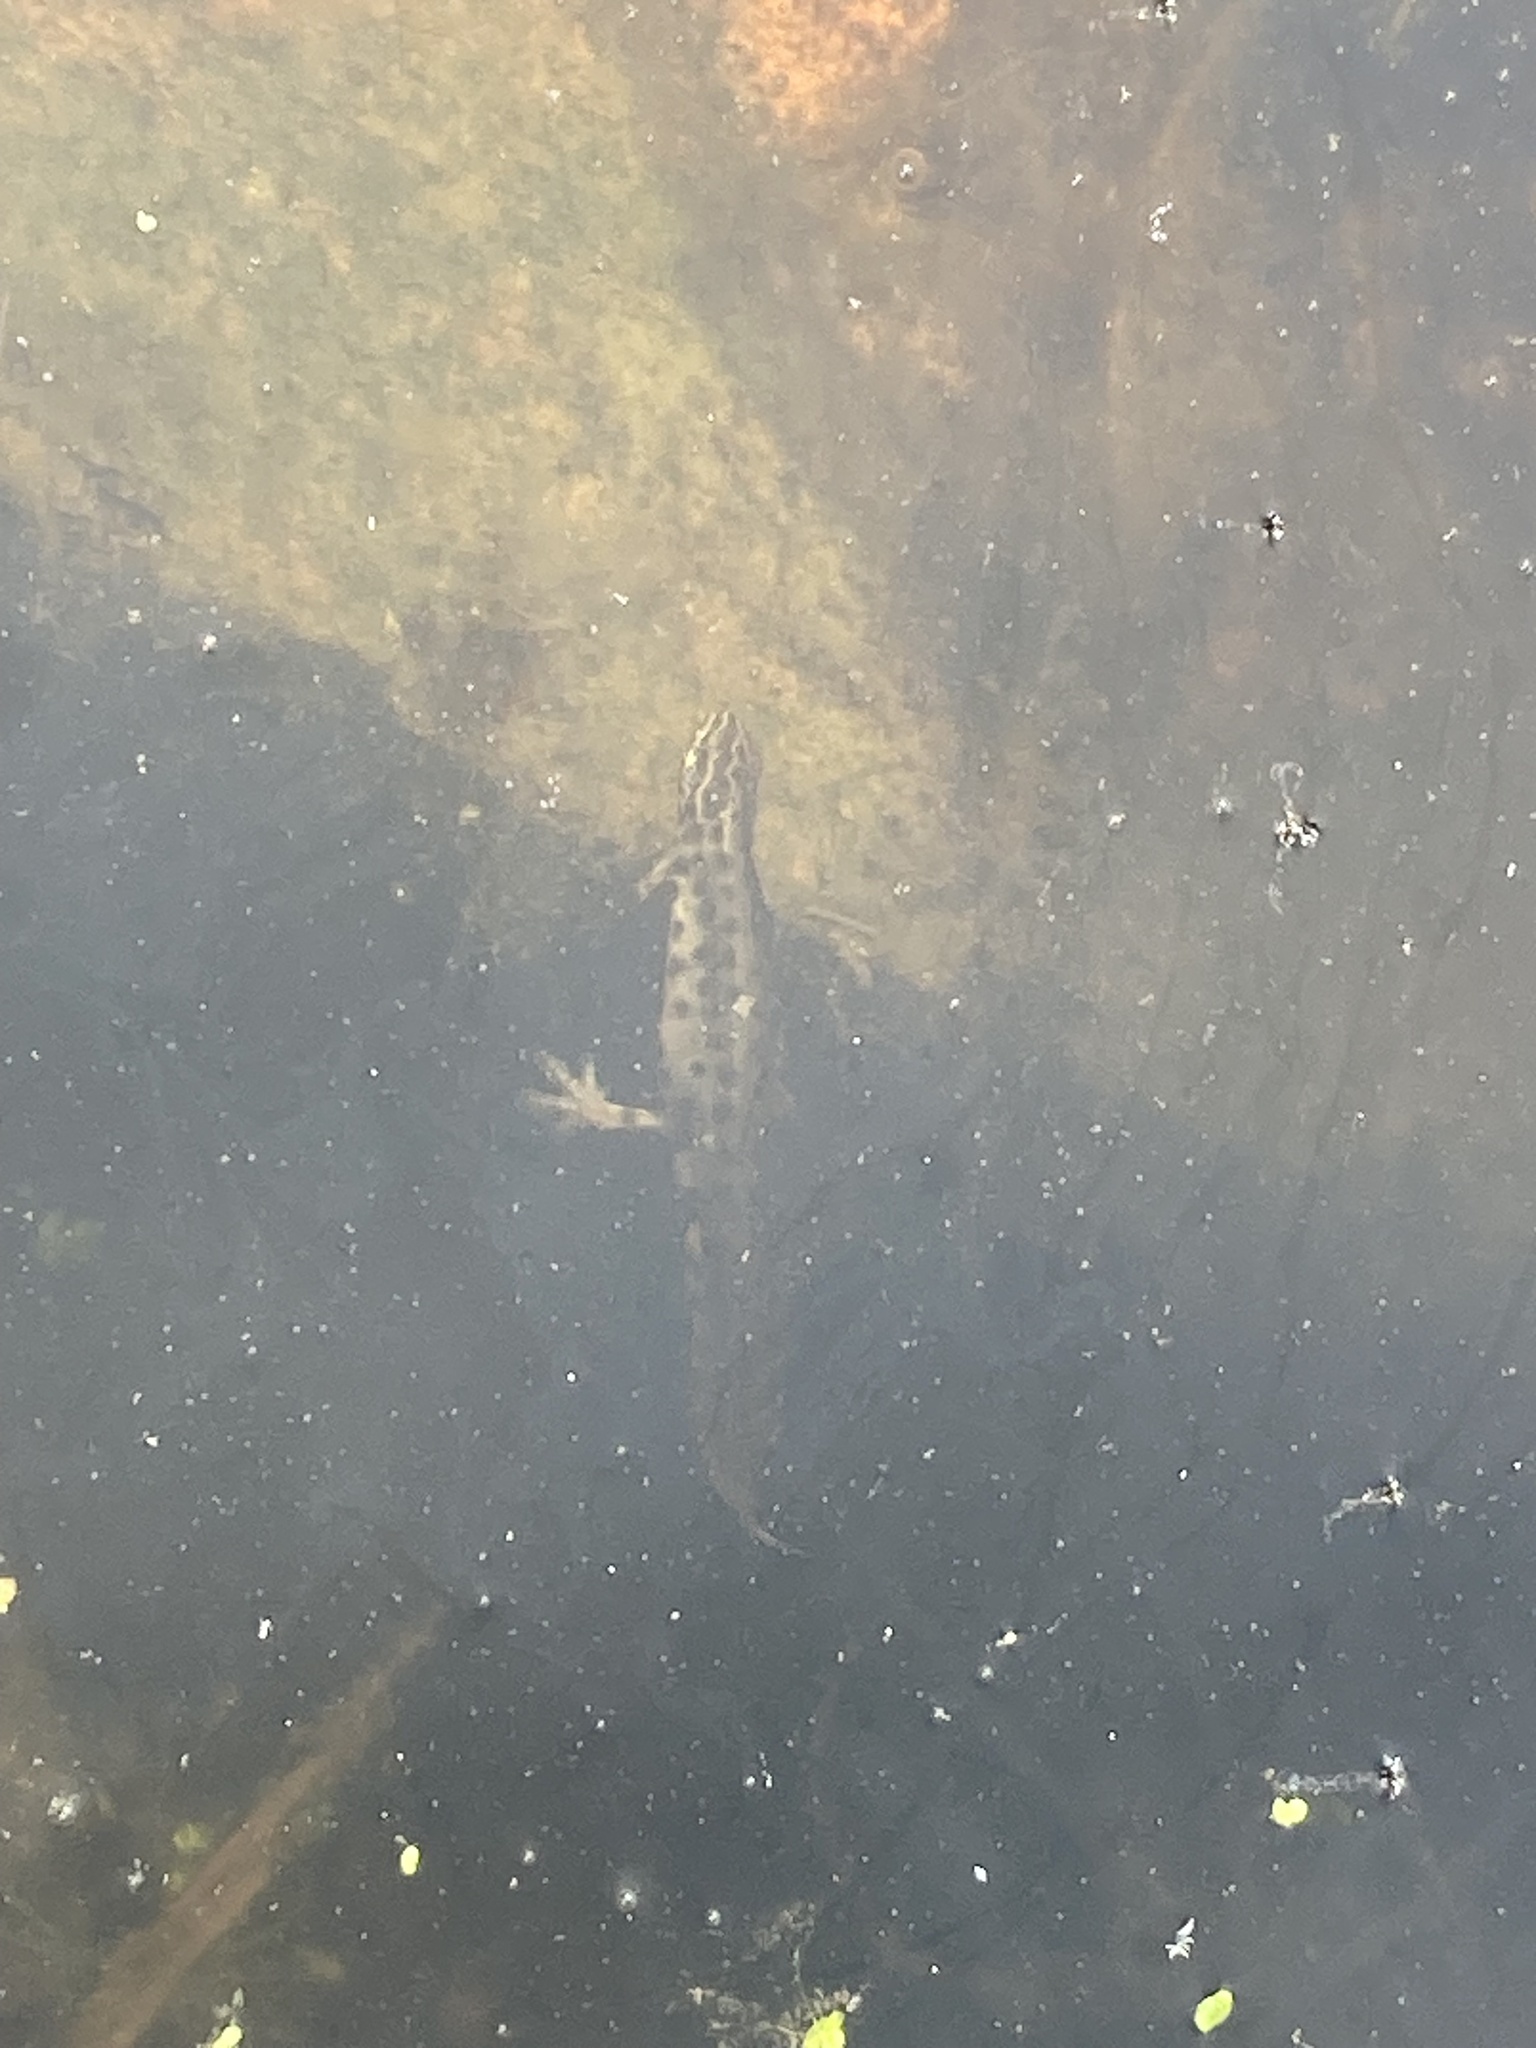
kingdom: Animalia
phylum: Chordata
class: Amphibia
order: Caudata
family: Salamandridae
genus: Lissotriton
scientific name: Lissotriton vulgaris
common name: Smooth newt
